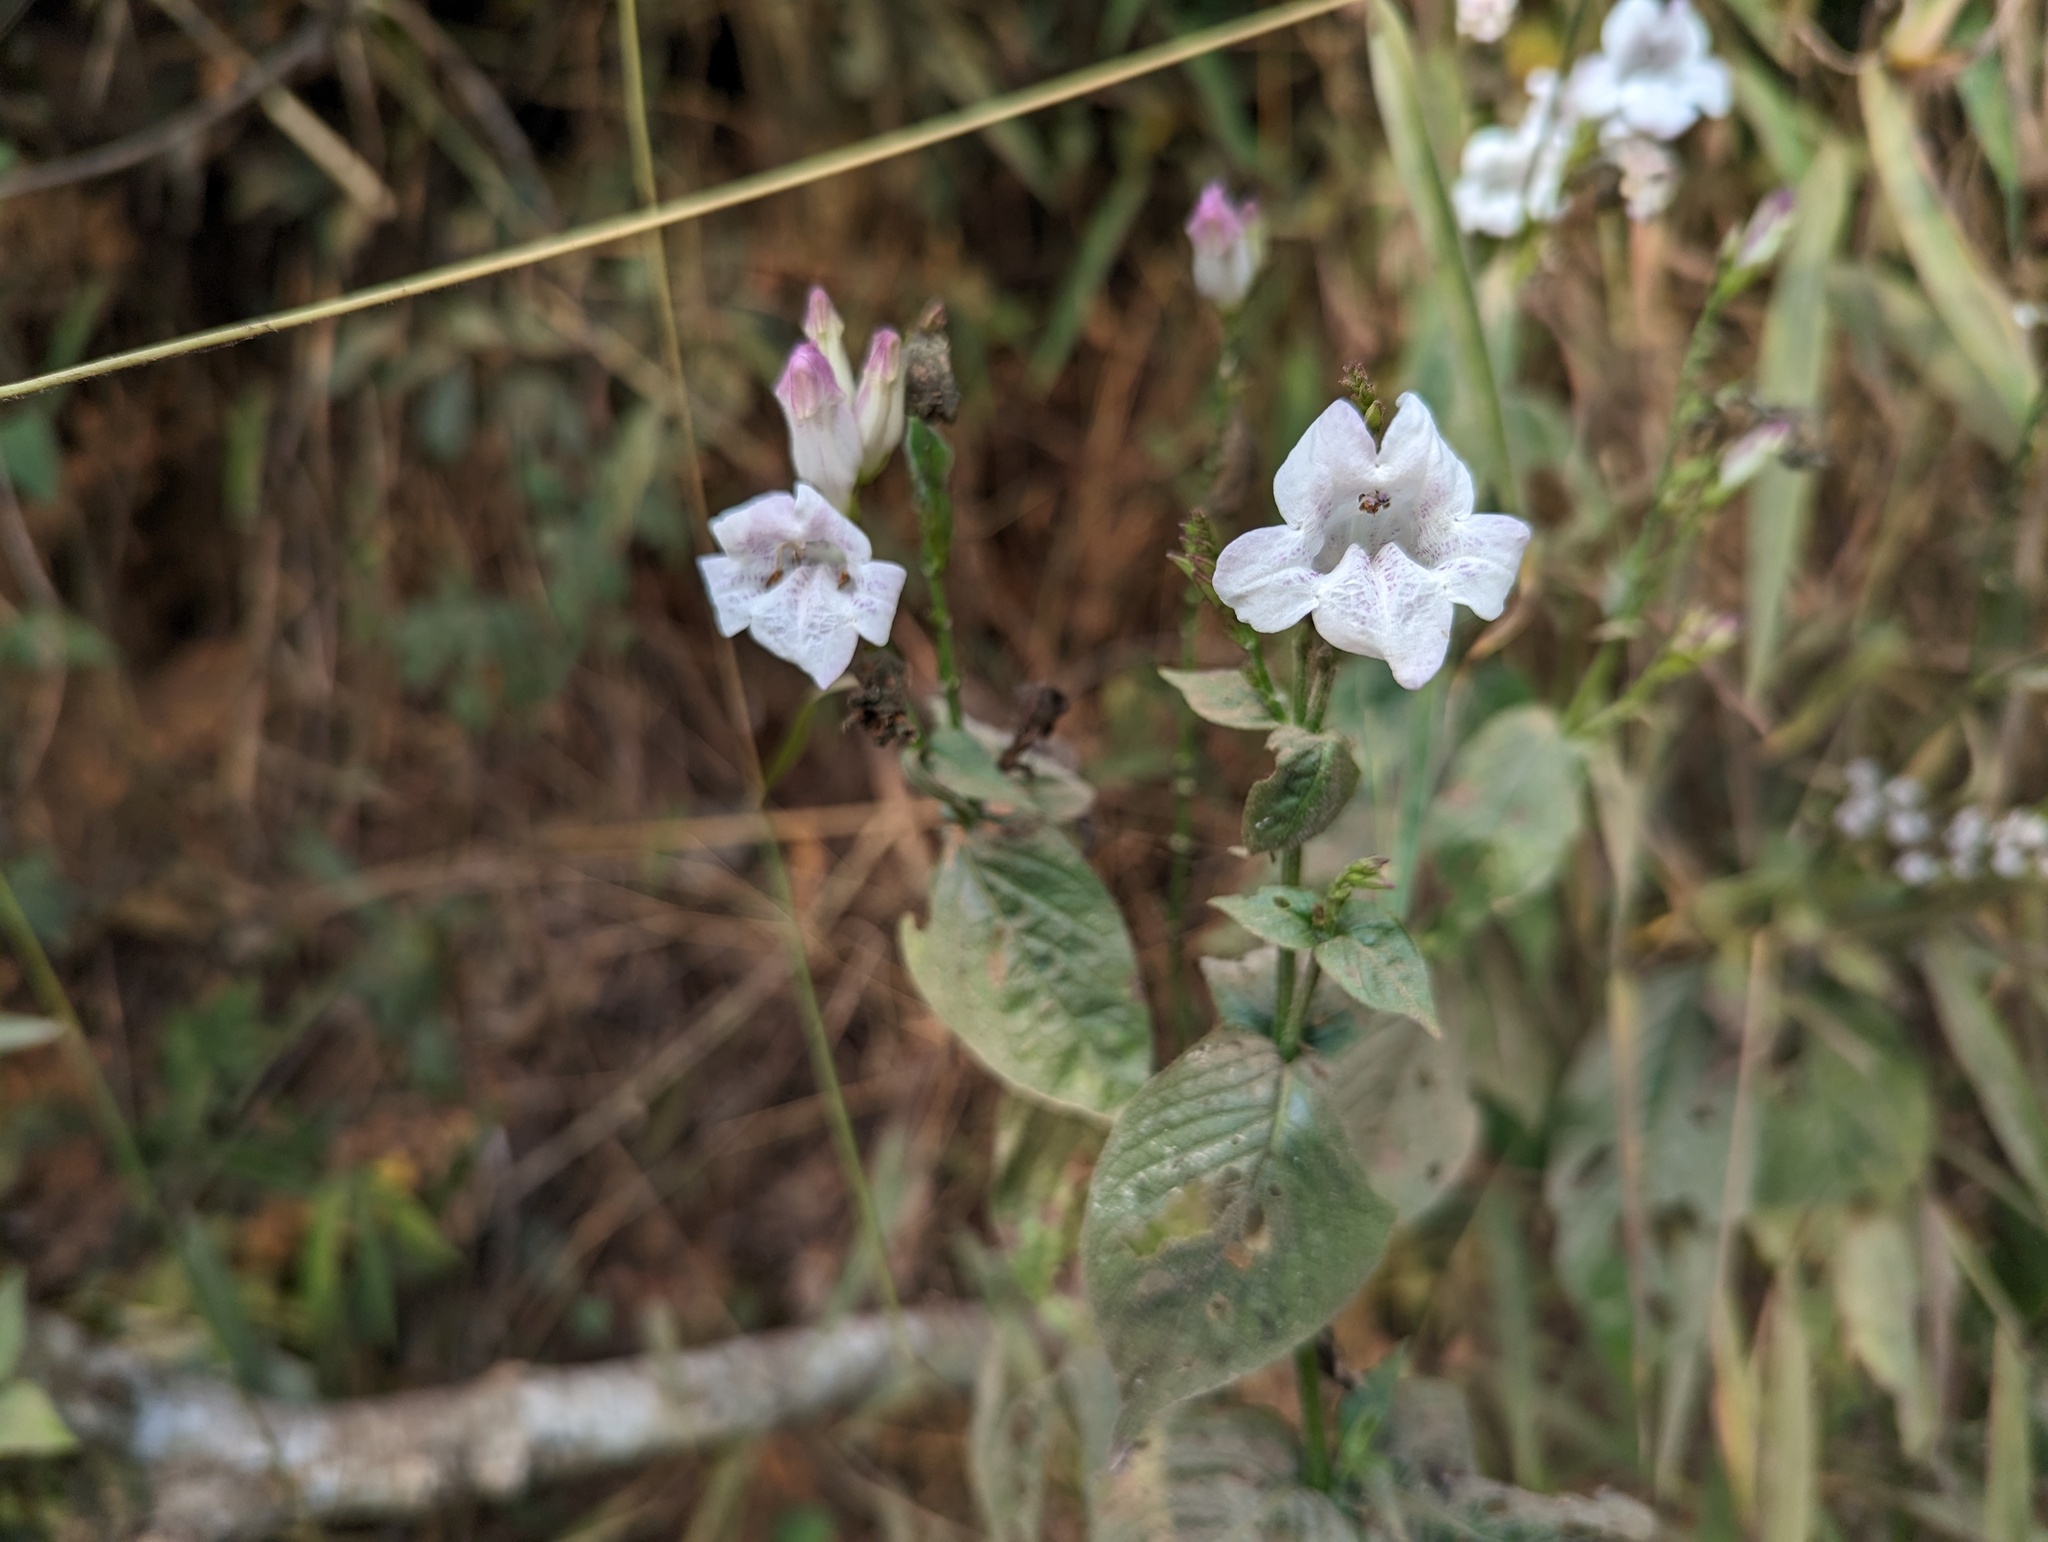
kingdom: Plantae
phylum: Tracheophyta
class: Magnoliopsida
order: Lamiales
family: Acanthaceae
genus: Asystasia
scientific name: Asystasia intrusa
